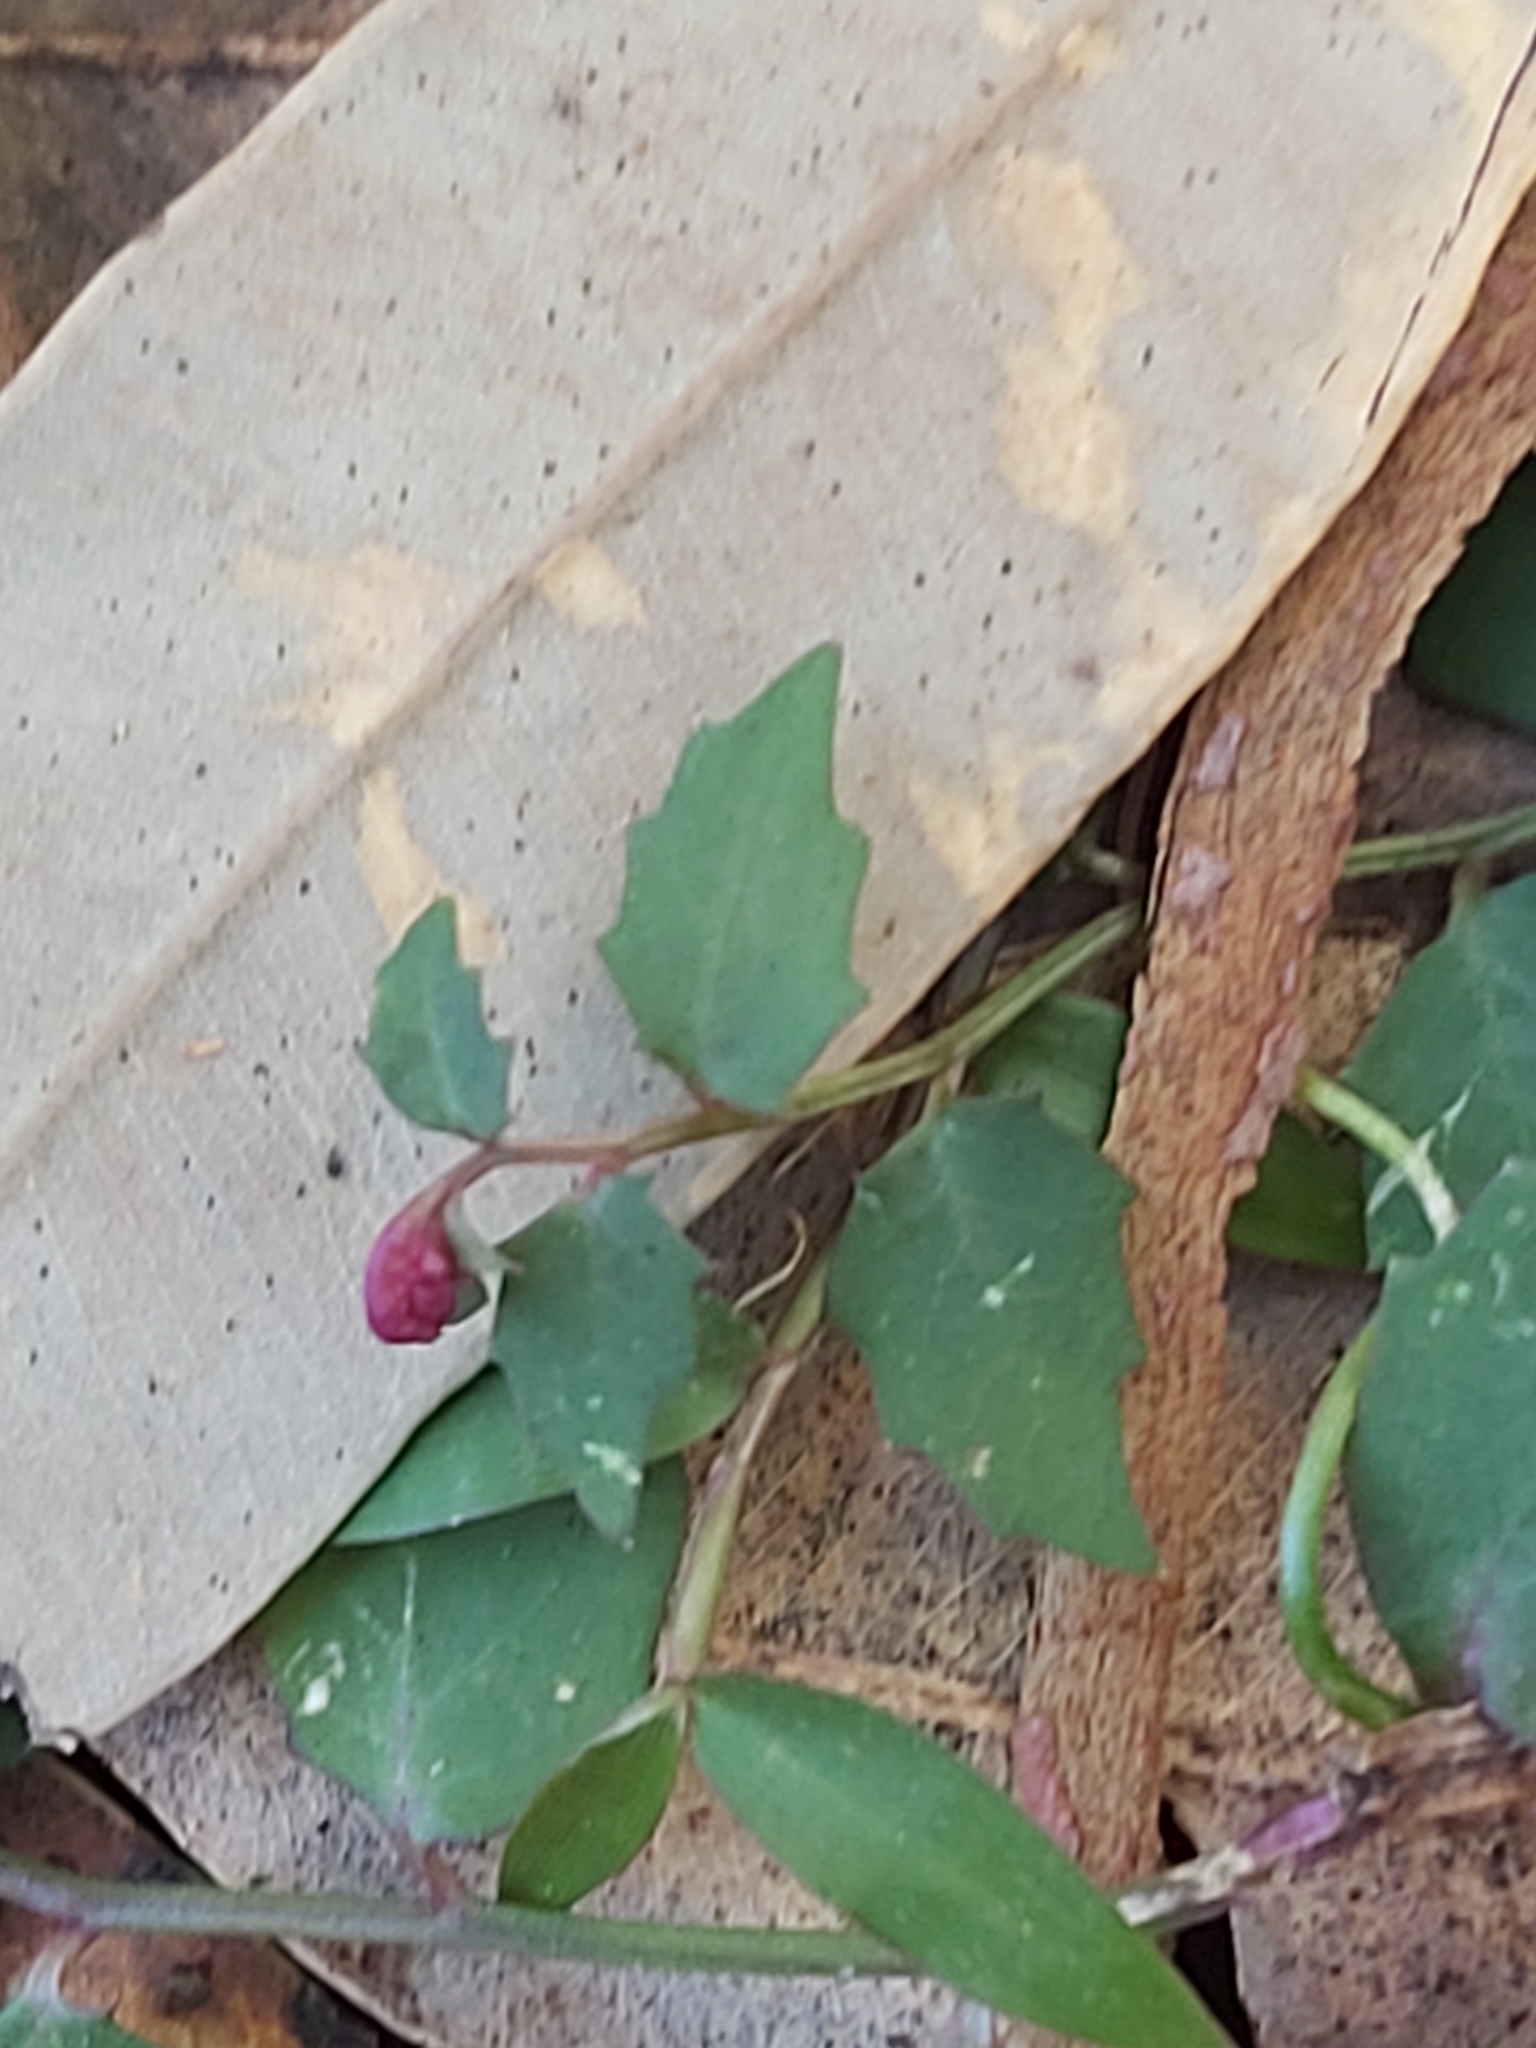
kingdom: Plantae
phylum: Tracheophyta
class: Magnoliopsida
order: Asterales
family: Campanulaceae
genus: Lobelia
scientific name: Lobelia purpurascens
